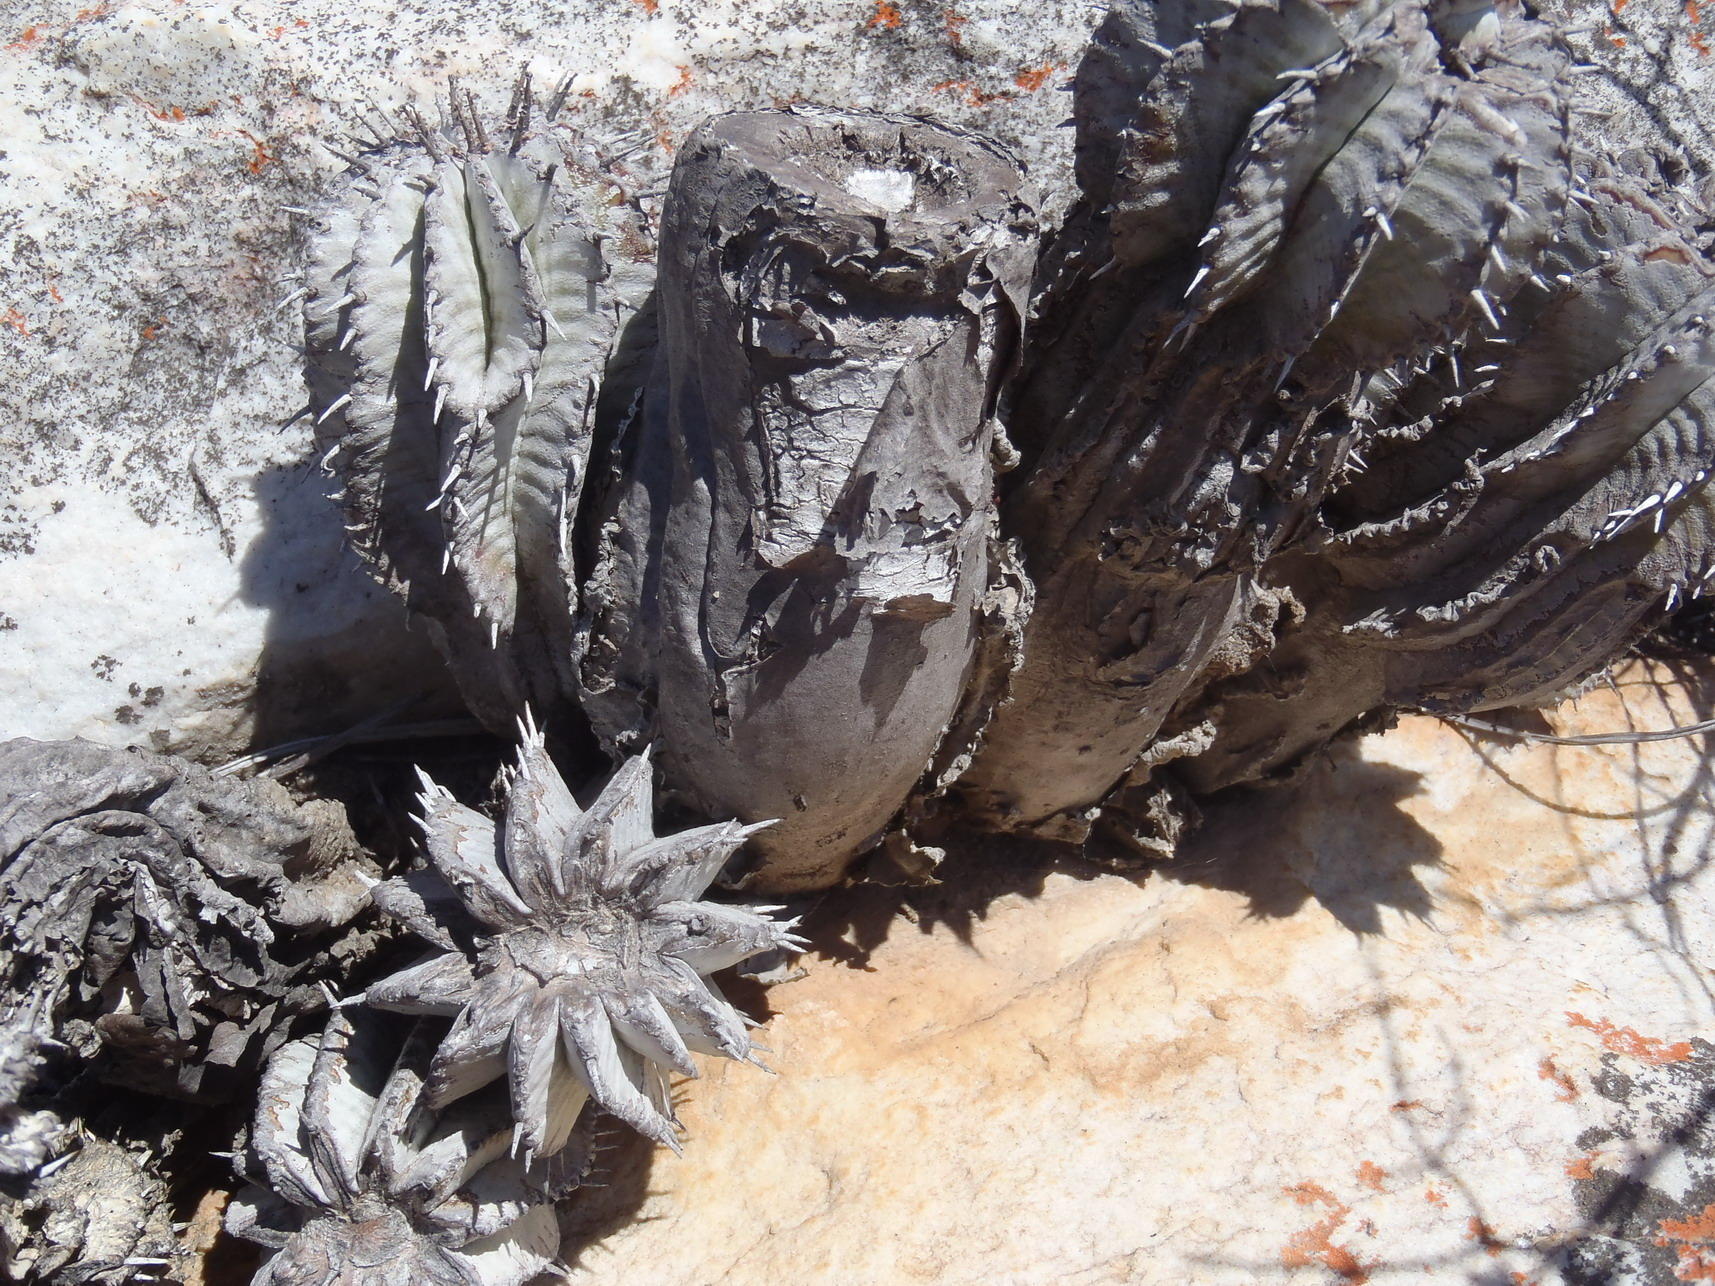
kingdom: Plantae
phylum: Tracheophyta
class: Magnoliopsida
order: Malpighiales
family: Euphorbiaceae
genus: Euphorbia
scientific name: Euphorbia polygona
